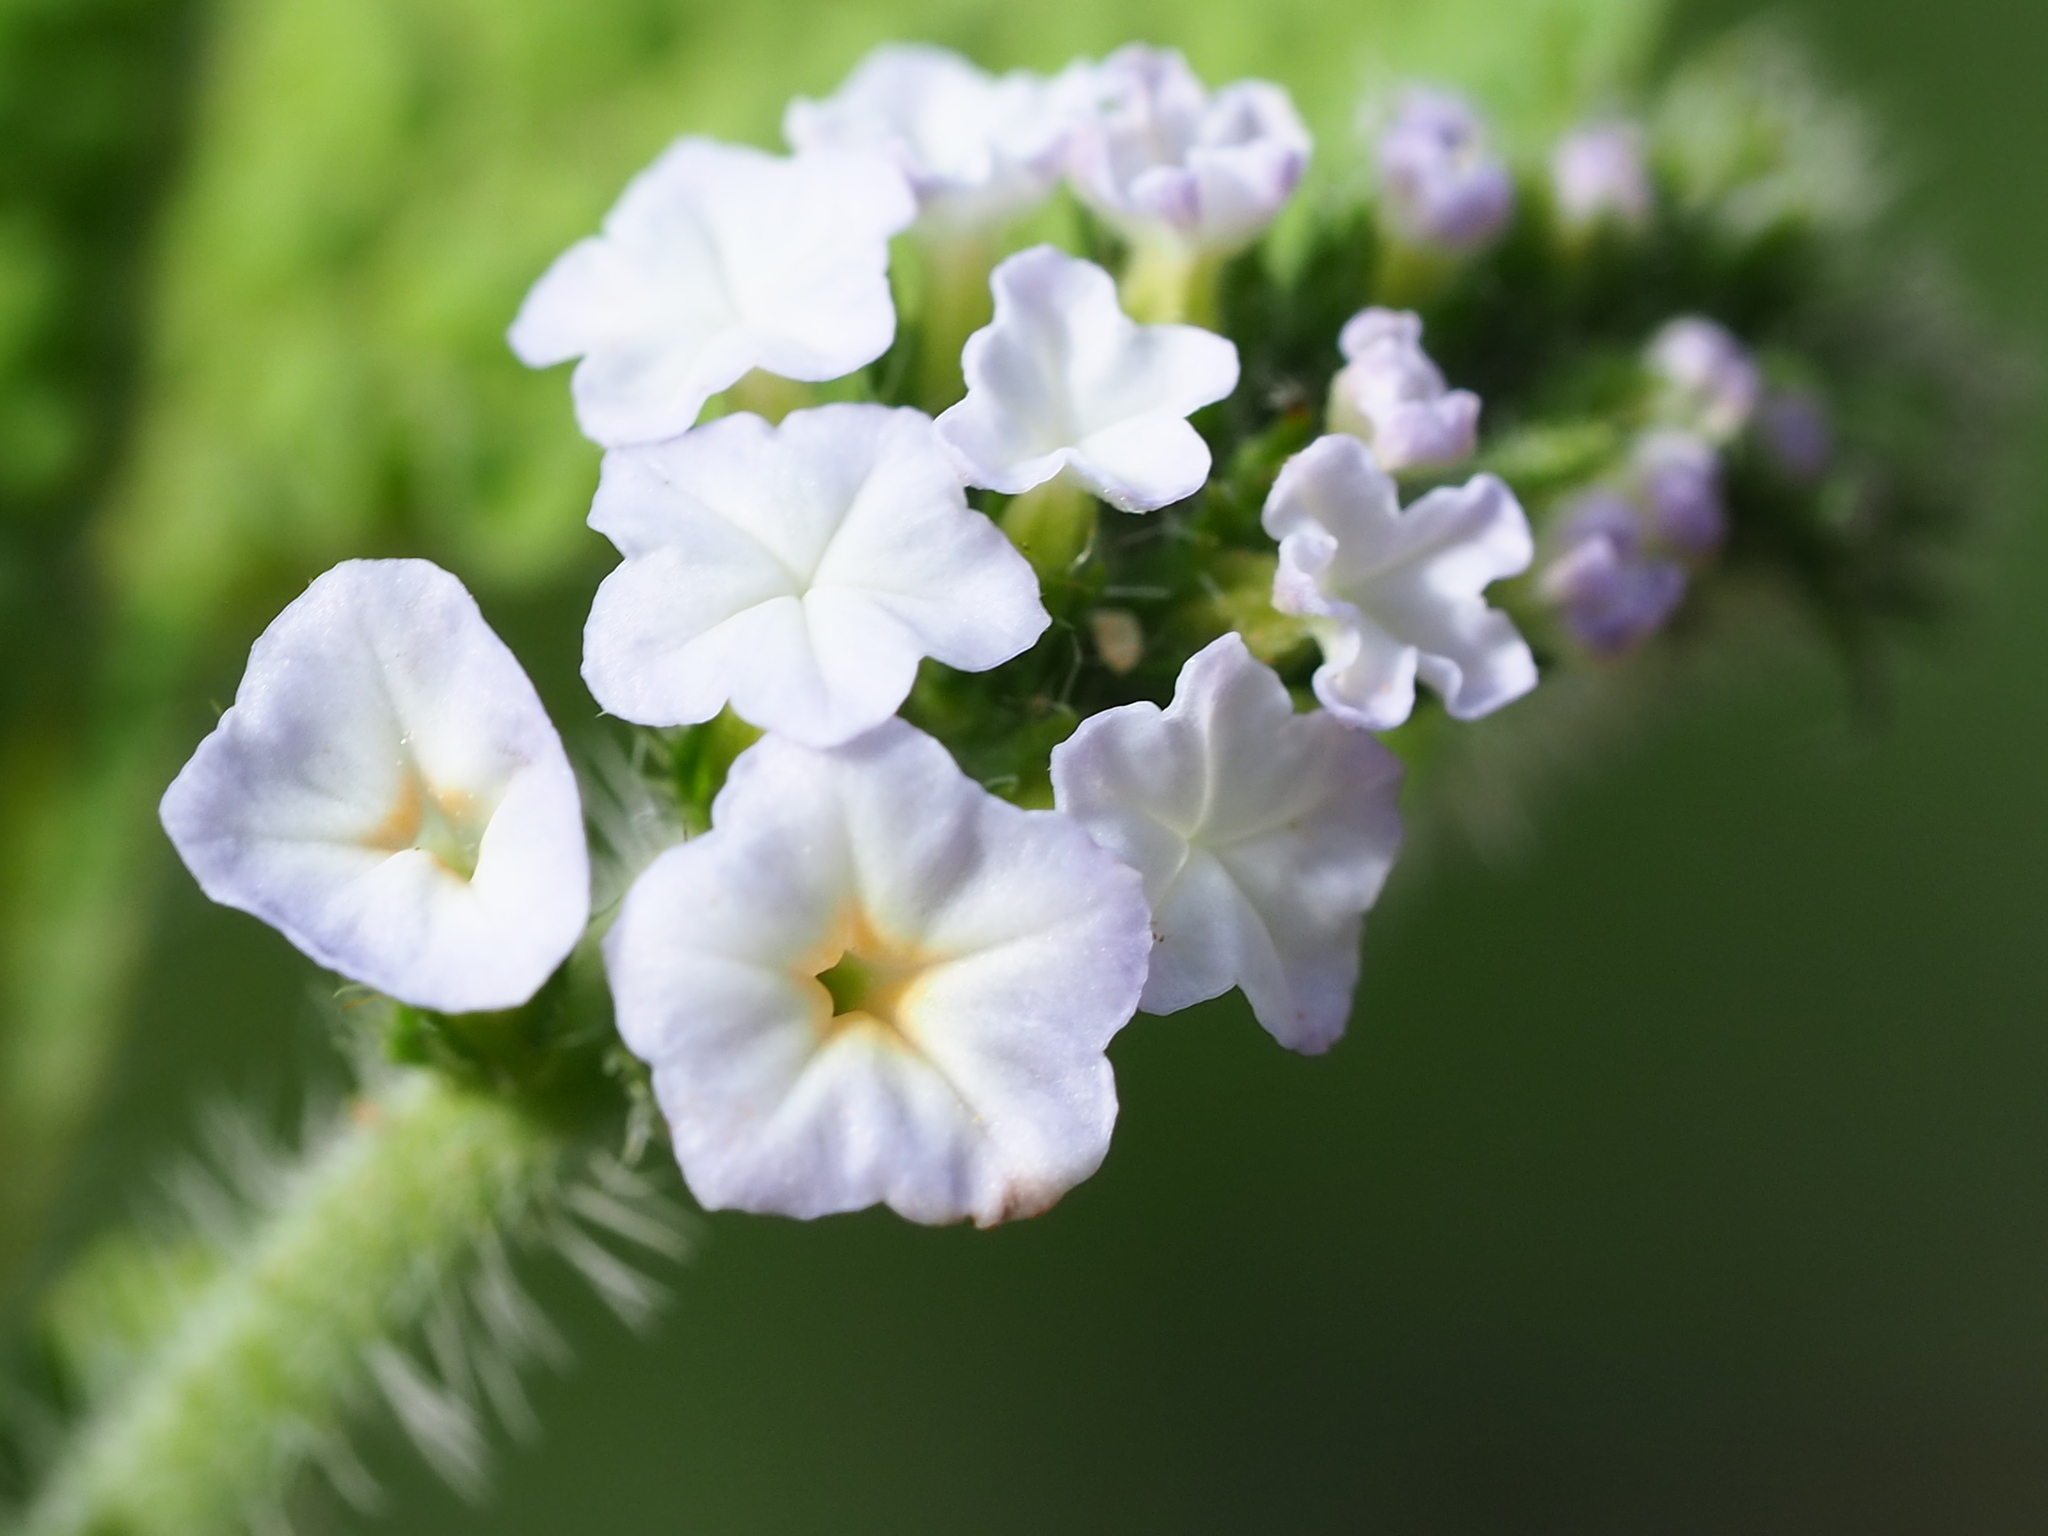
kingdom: Plantae
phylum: Tracheophyta
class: Magnoliopsida
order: Boraginales
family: Heliotropiaceae
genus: Heliotropium
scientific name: Heliotropium indicum
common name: Indian heliotrope
